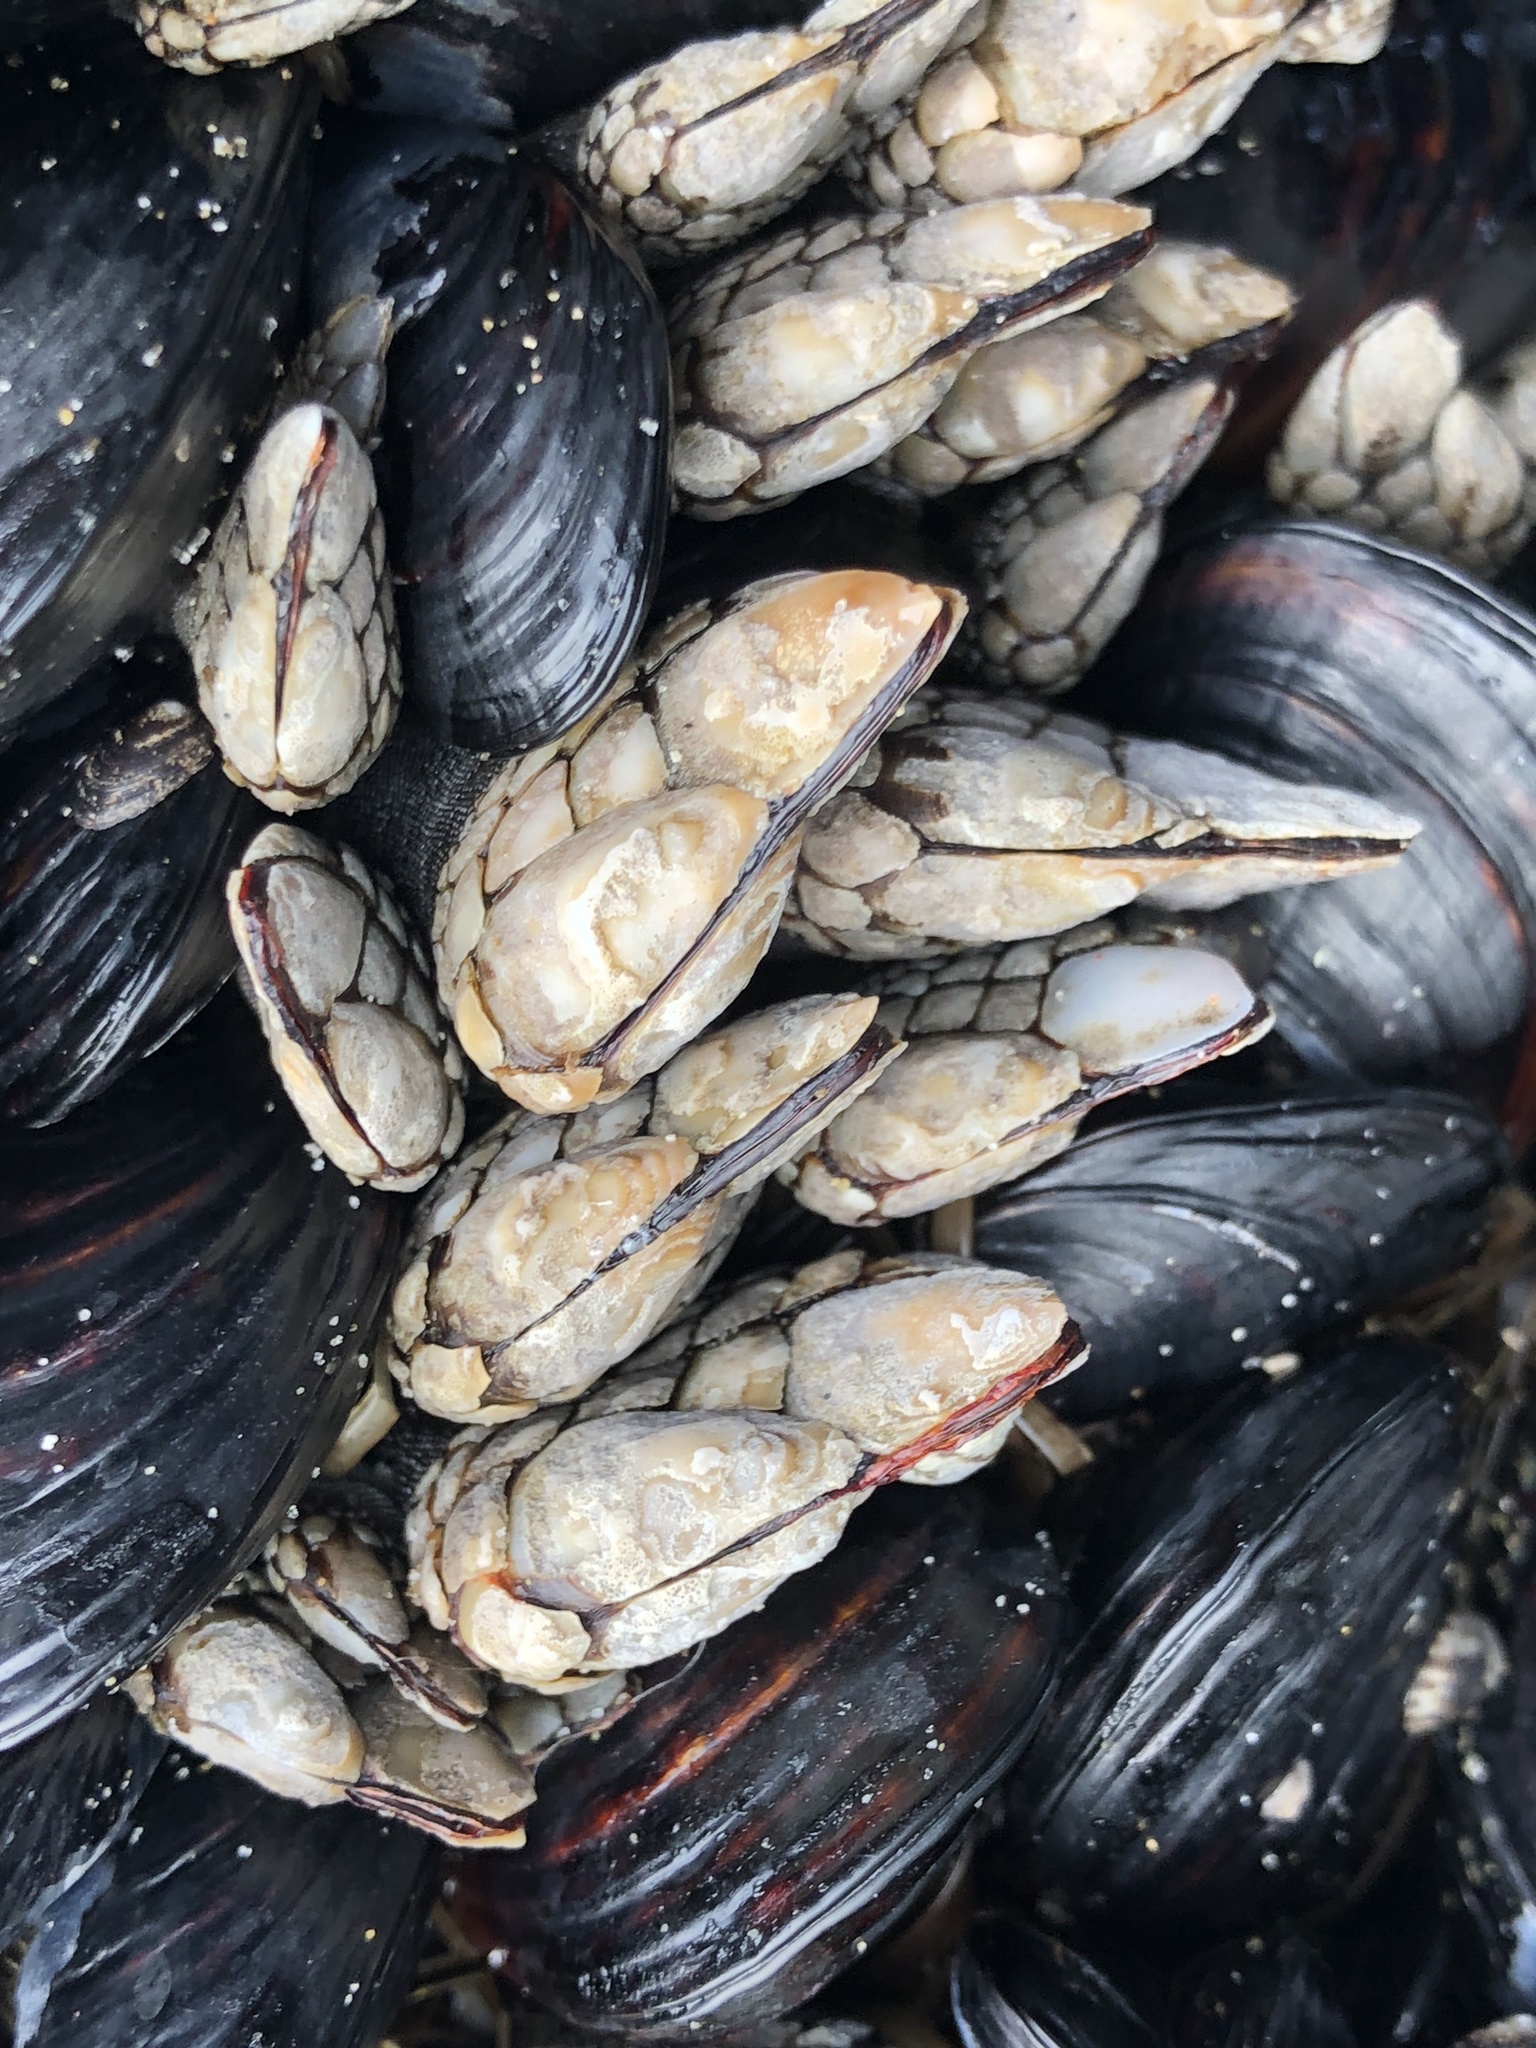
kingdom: Animalia
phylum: Arthropoda
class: Maxillopoda
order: Pedunculata
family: Pollicipedidae
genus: Pollicipes
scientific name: Pollicipes polymerus
